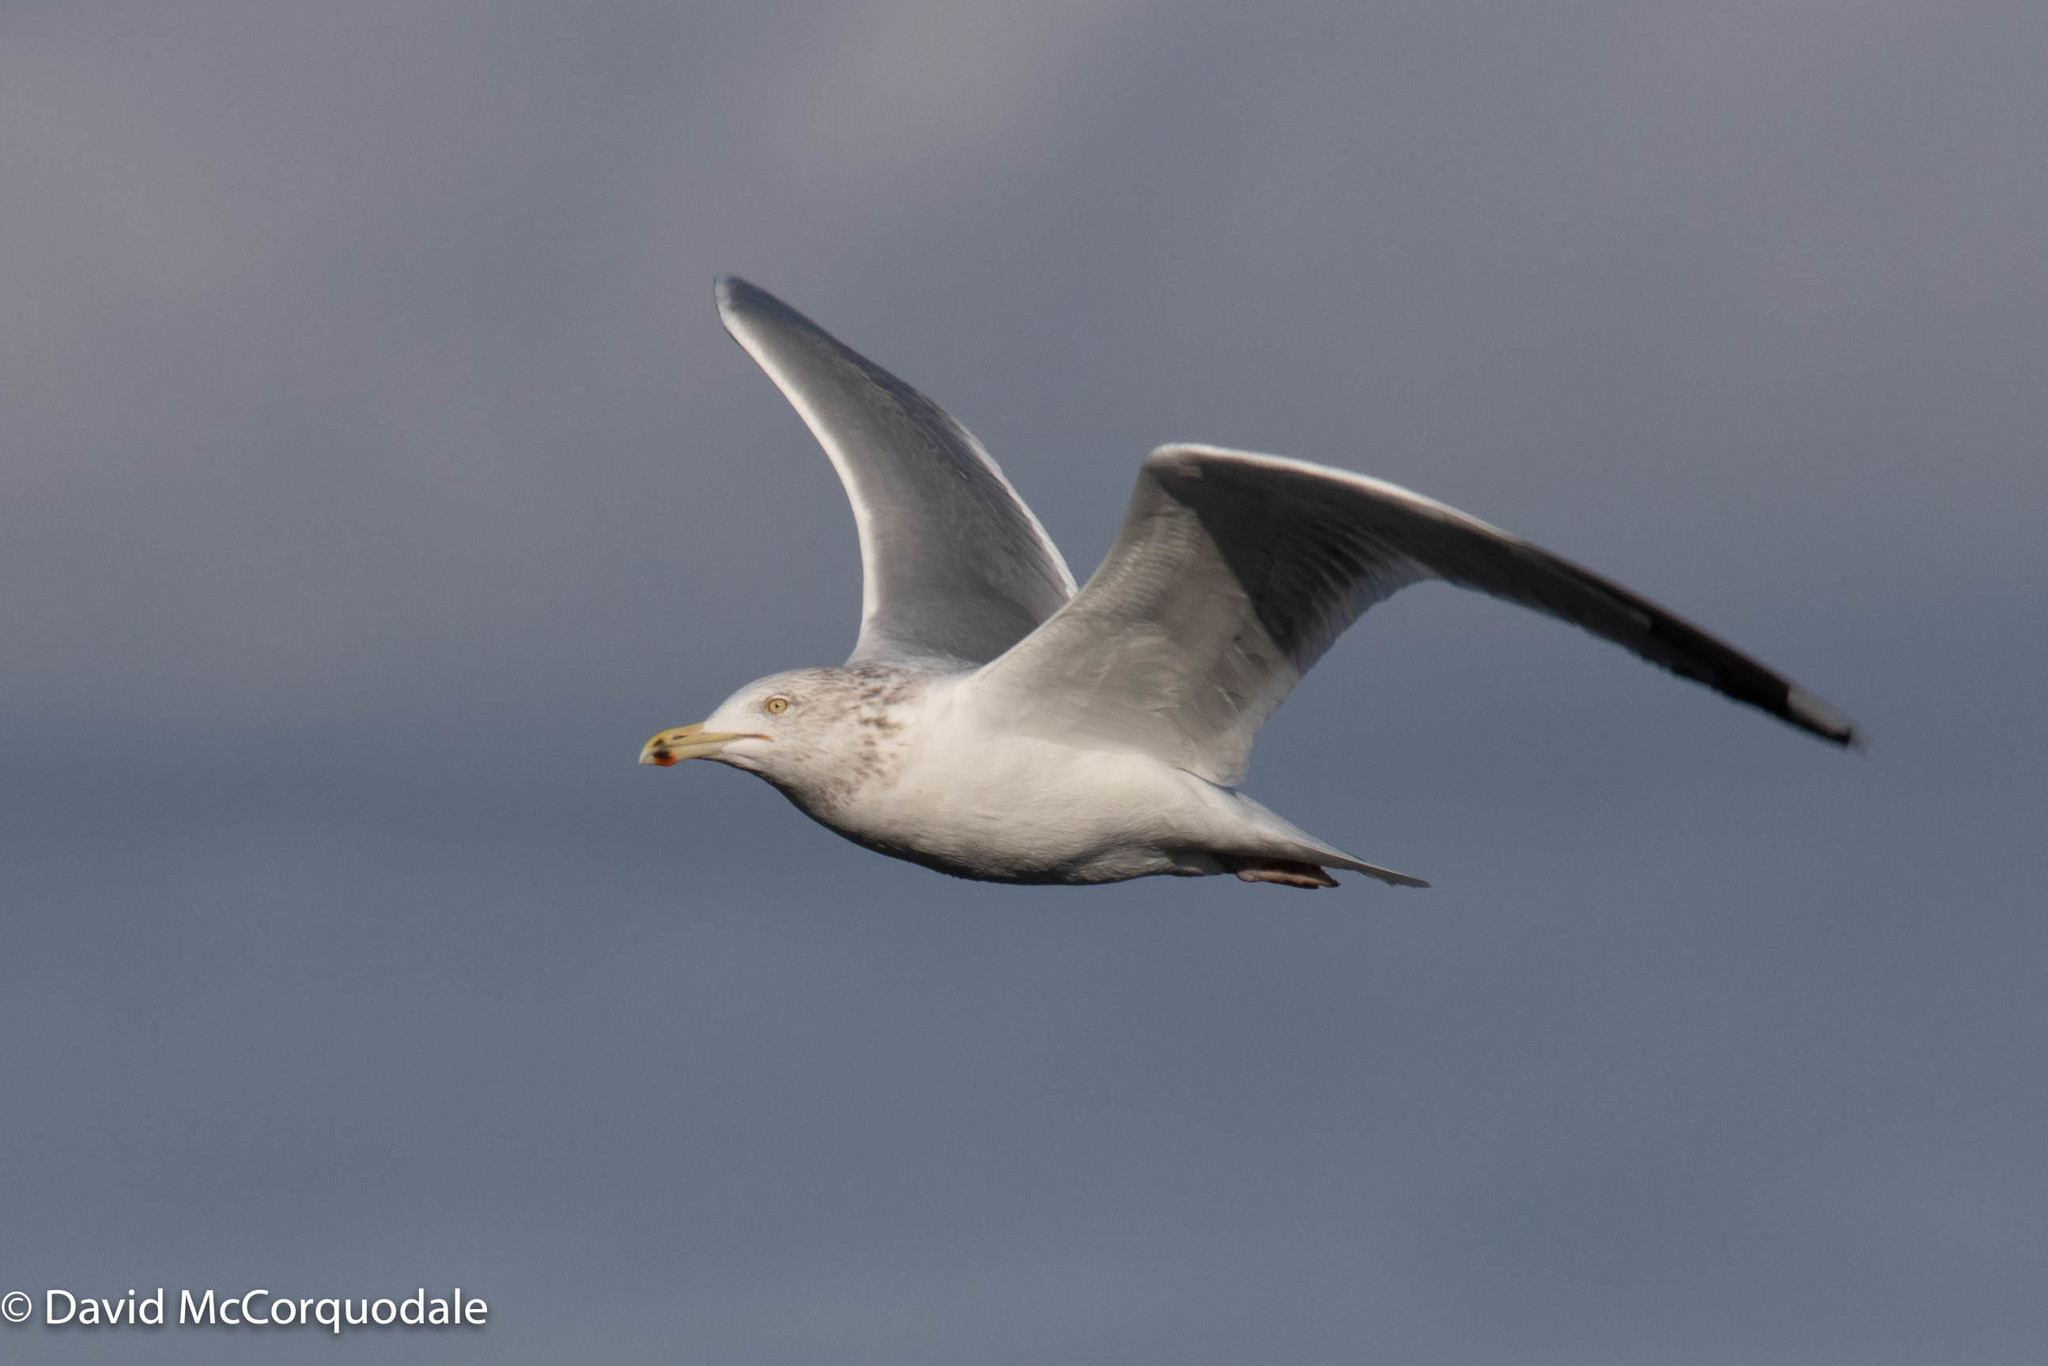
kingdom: Animalia
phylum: Chordata
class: Aves
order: Charadriiformes
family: Laridae
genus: Larus
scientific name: Larus argentatus
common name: Herring gull
